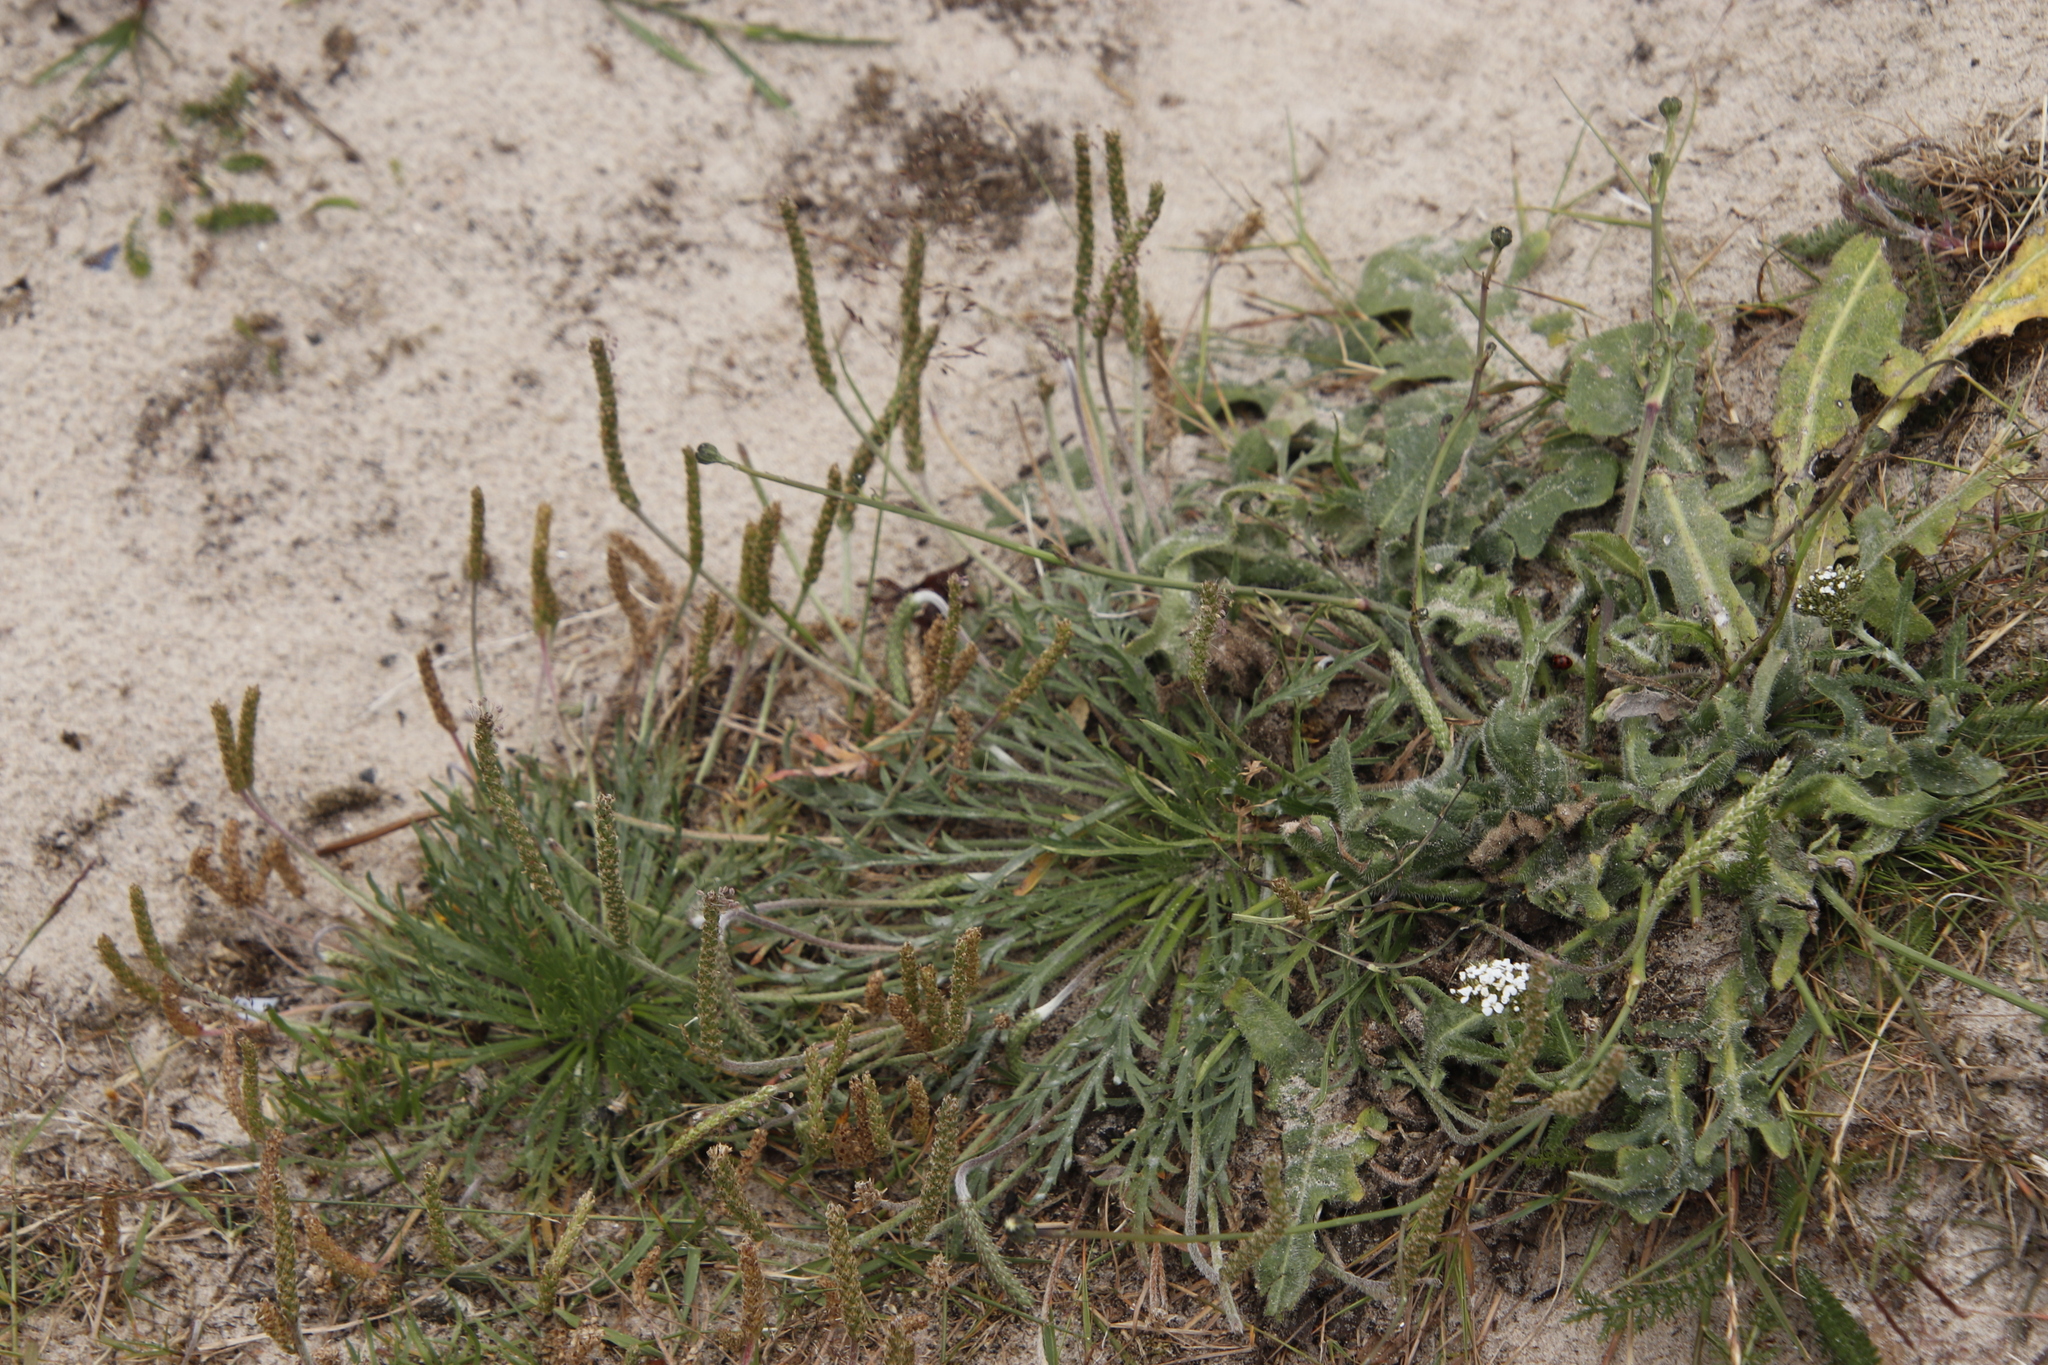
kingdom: Plantae
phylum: Tracheophyta
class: Magnoliopsida
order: Lamiales
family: Plantaginaceae
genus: Plantago
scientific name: Plantago coronopus
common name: Buck's-horn plantain
